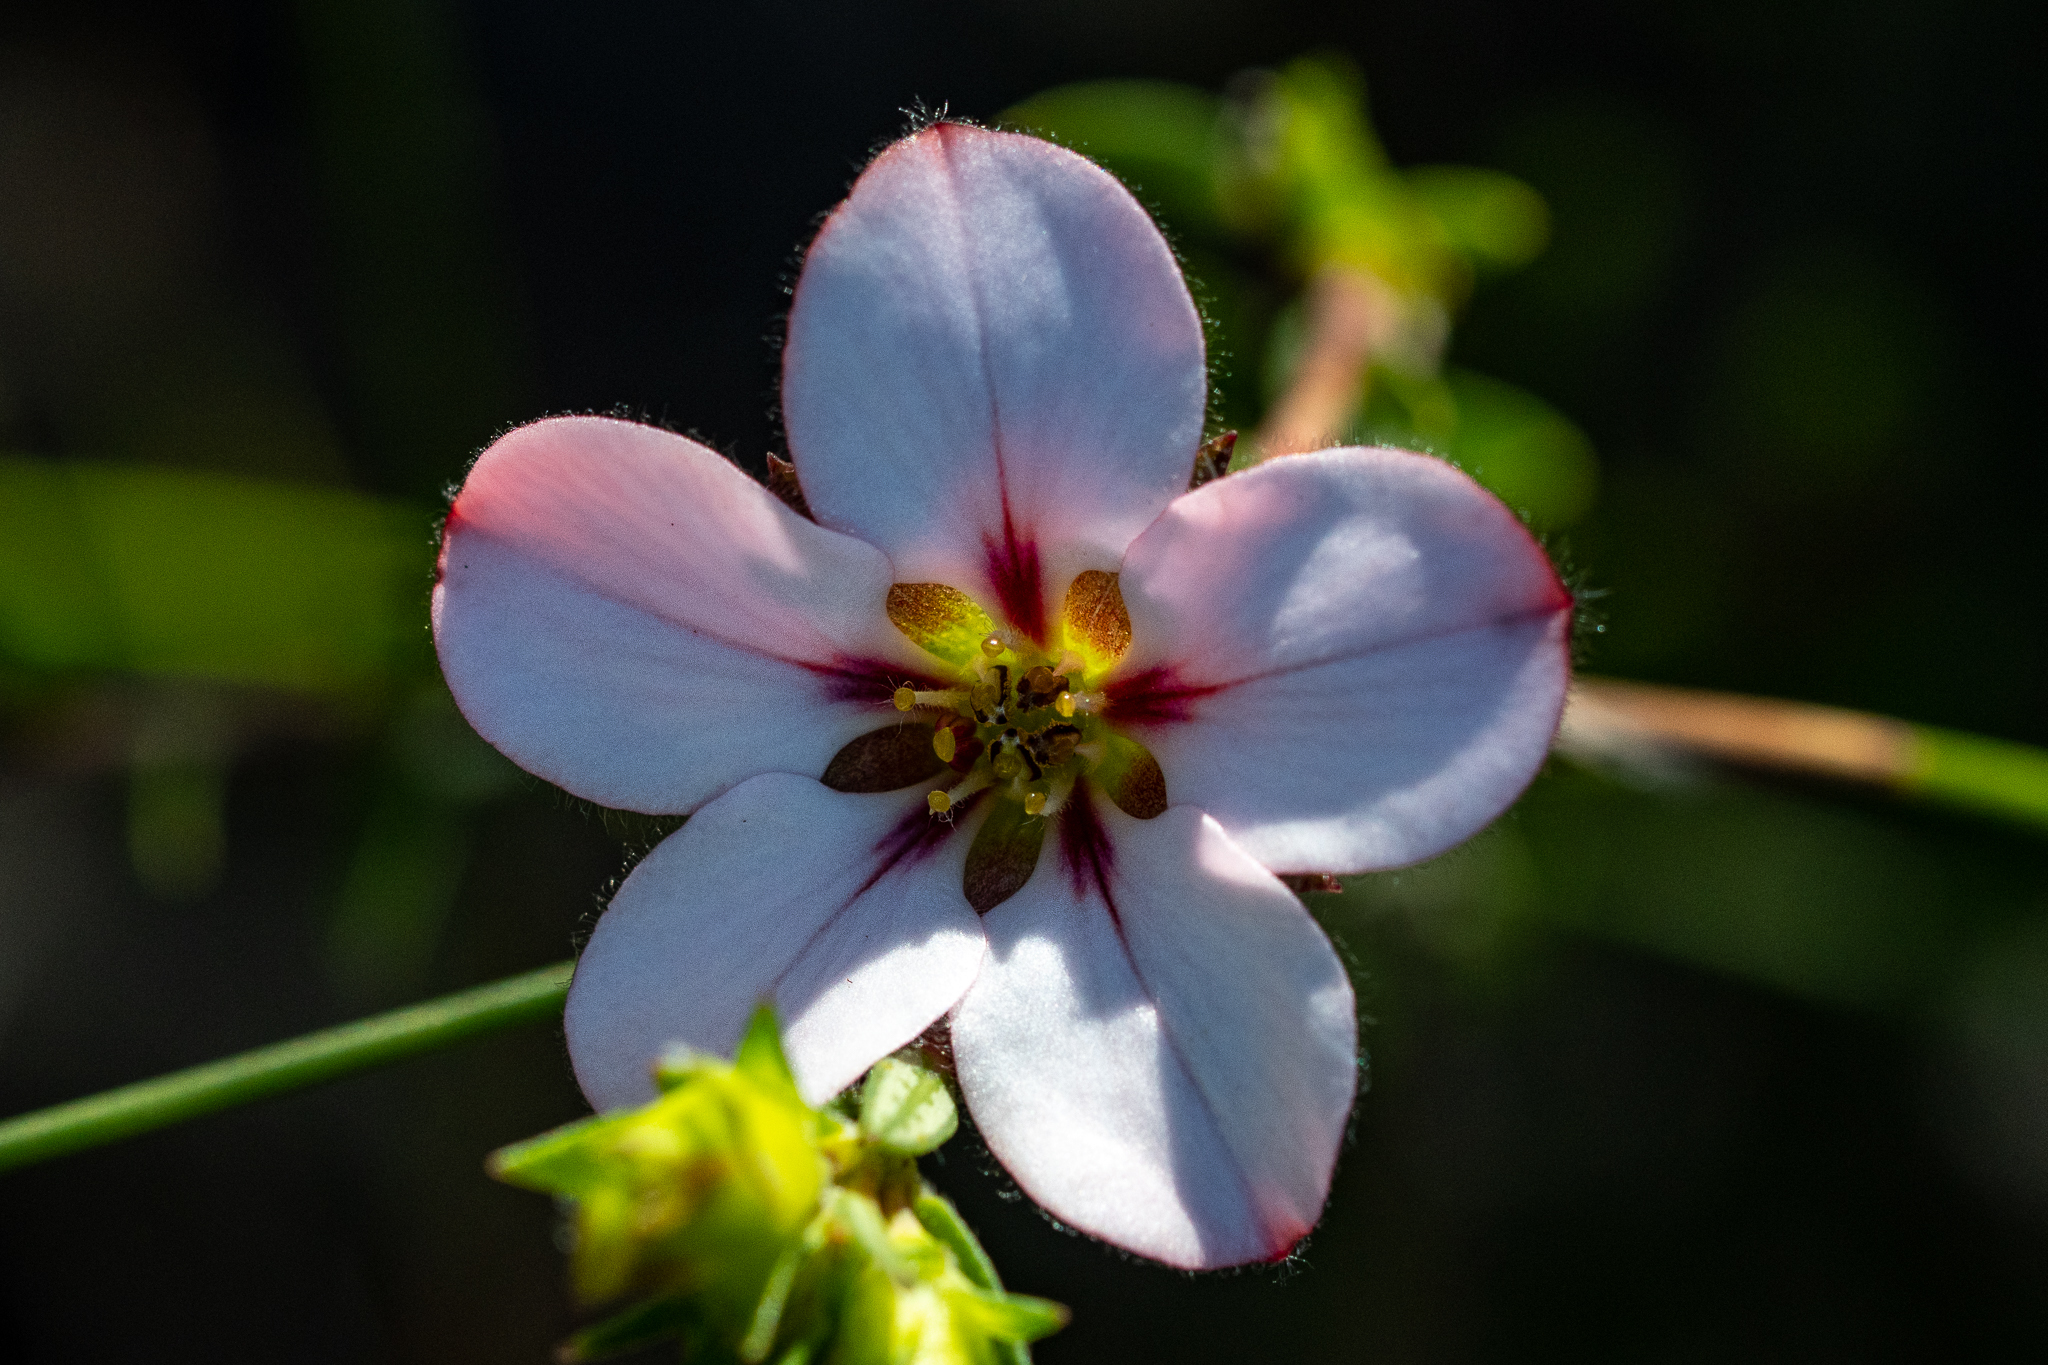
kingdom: Plantae
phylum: Tracheophyta
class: Magnoliopsida
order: Sapindales
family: Rutaceae
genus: Adenandra
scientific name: Adenandra villosa
